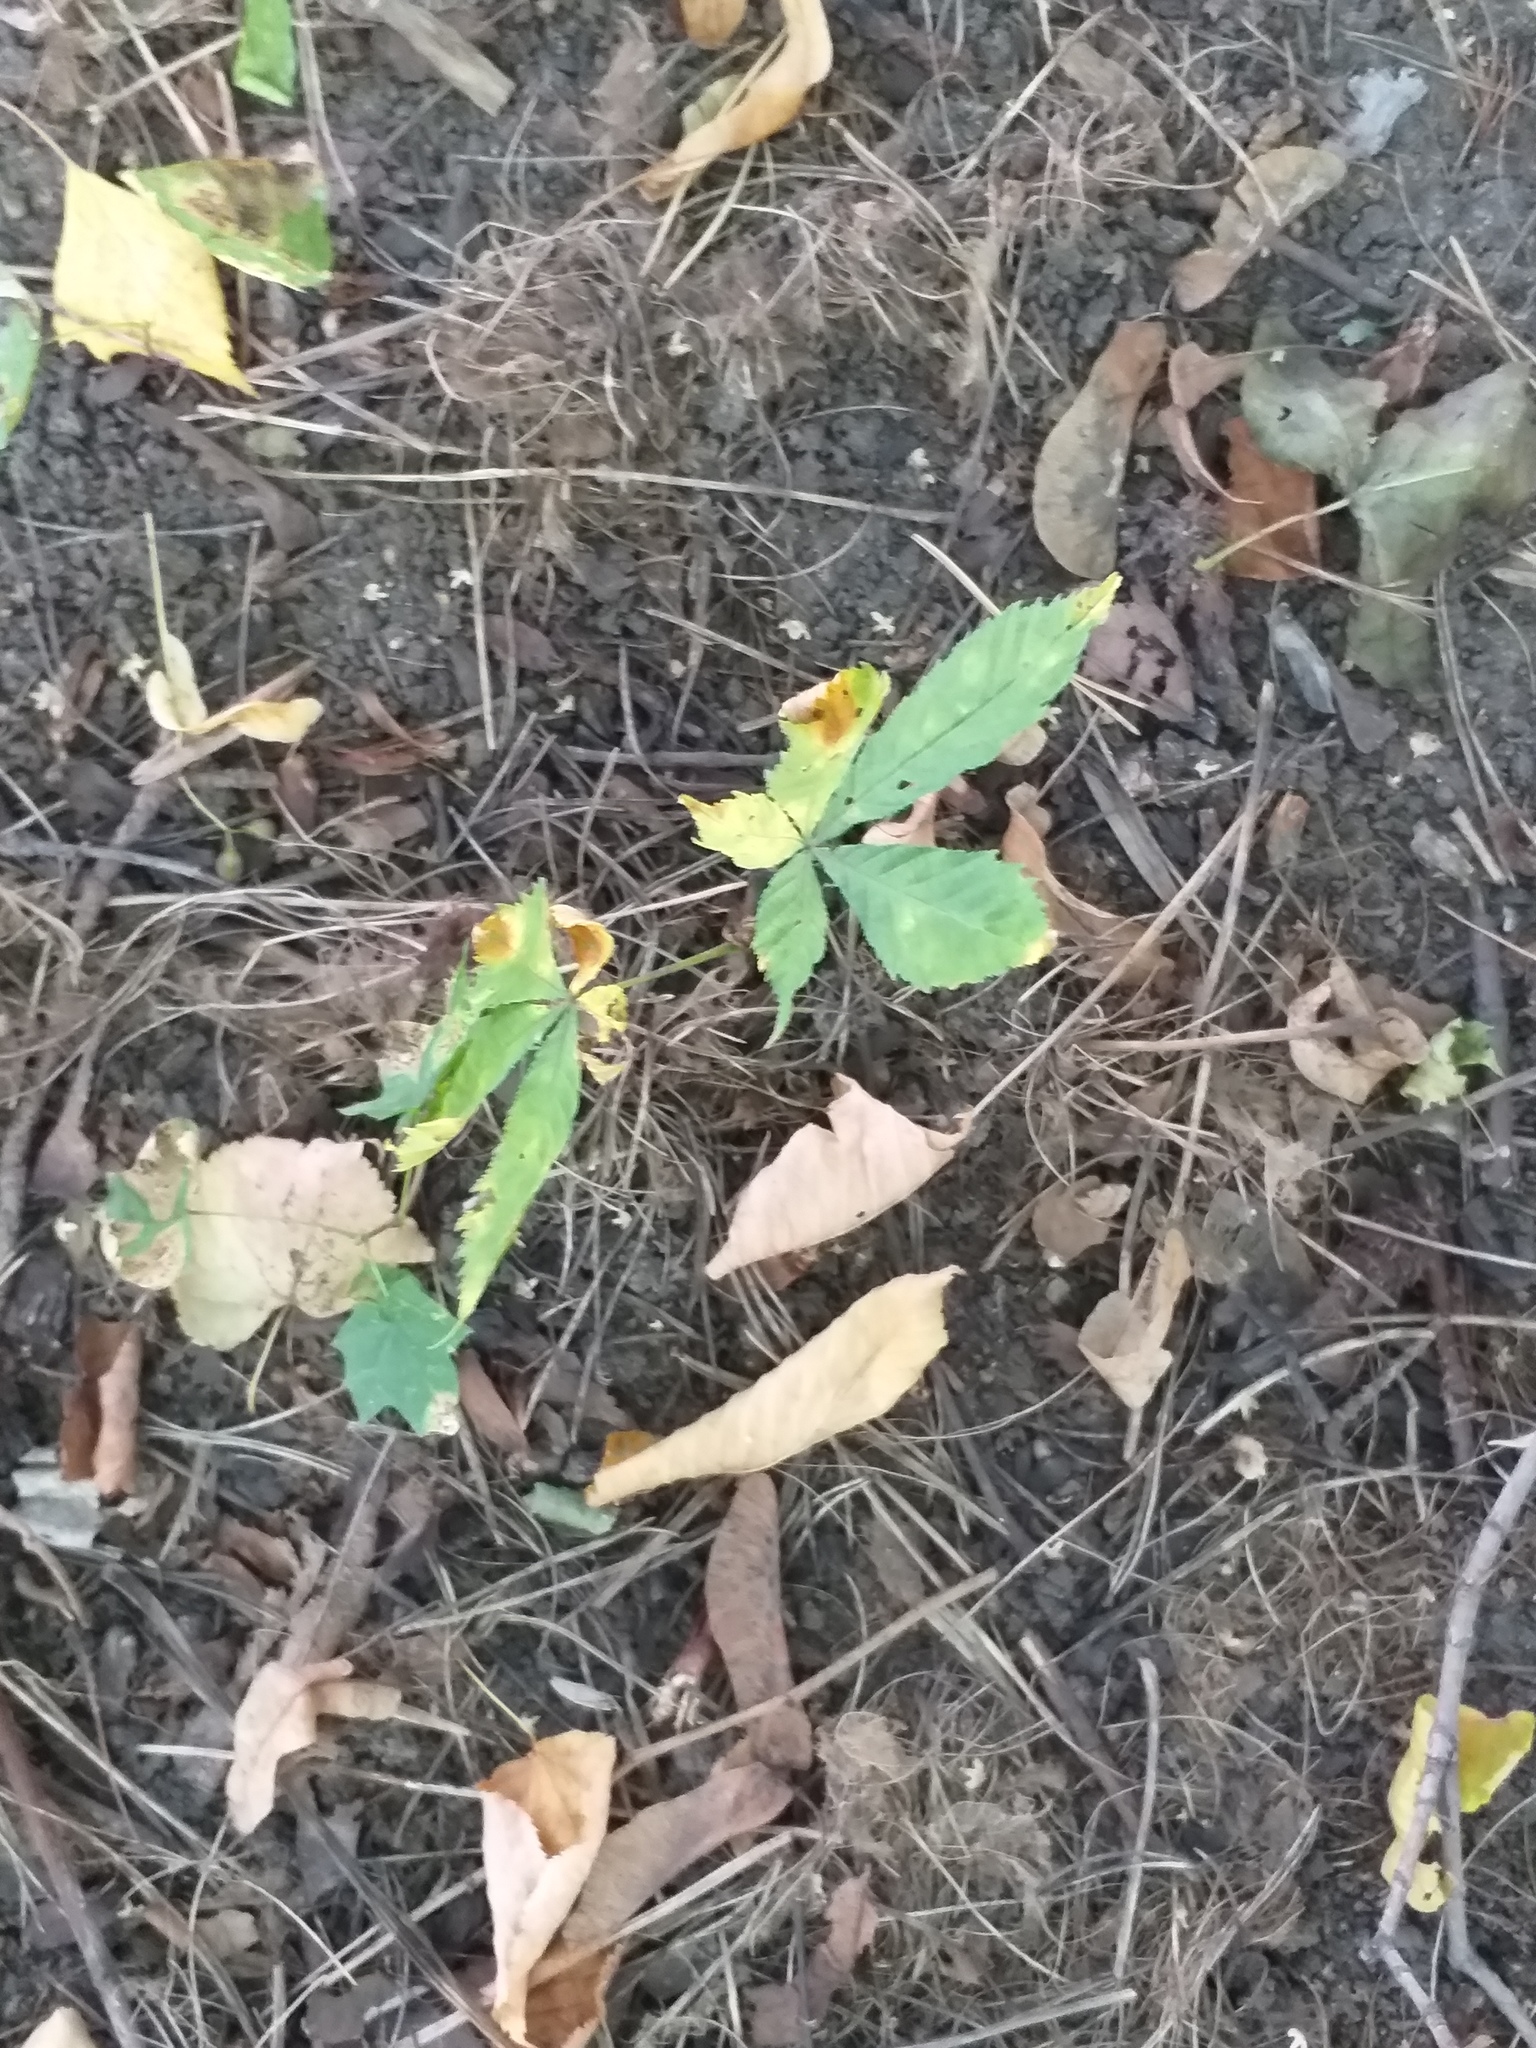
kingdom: Plantae
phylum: Tracheophyta
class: Magnoliopsida
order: Sapindales
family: Sapindaceae
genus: Aesculus
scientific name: Aesculus hippocastanum
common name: Horse-chestnut
